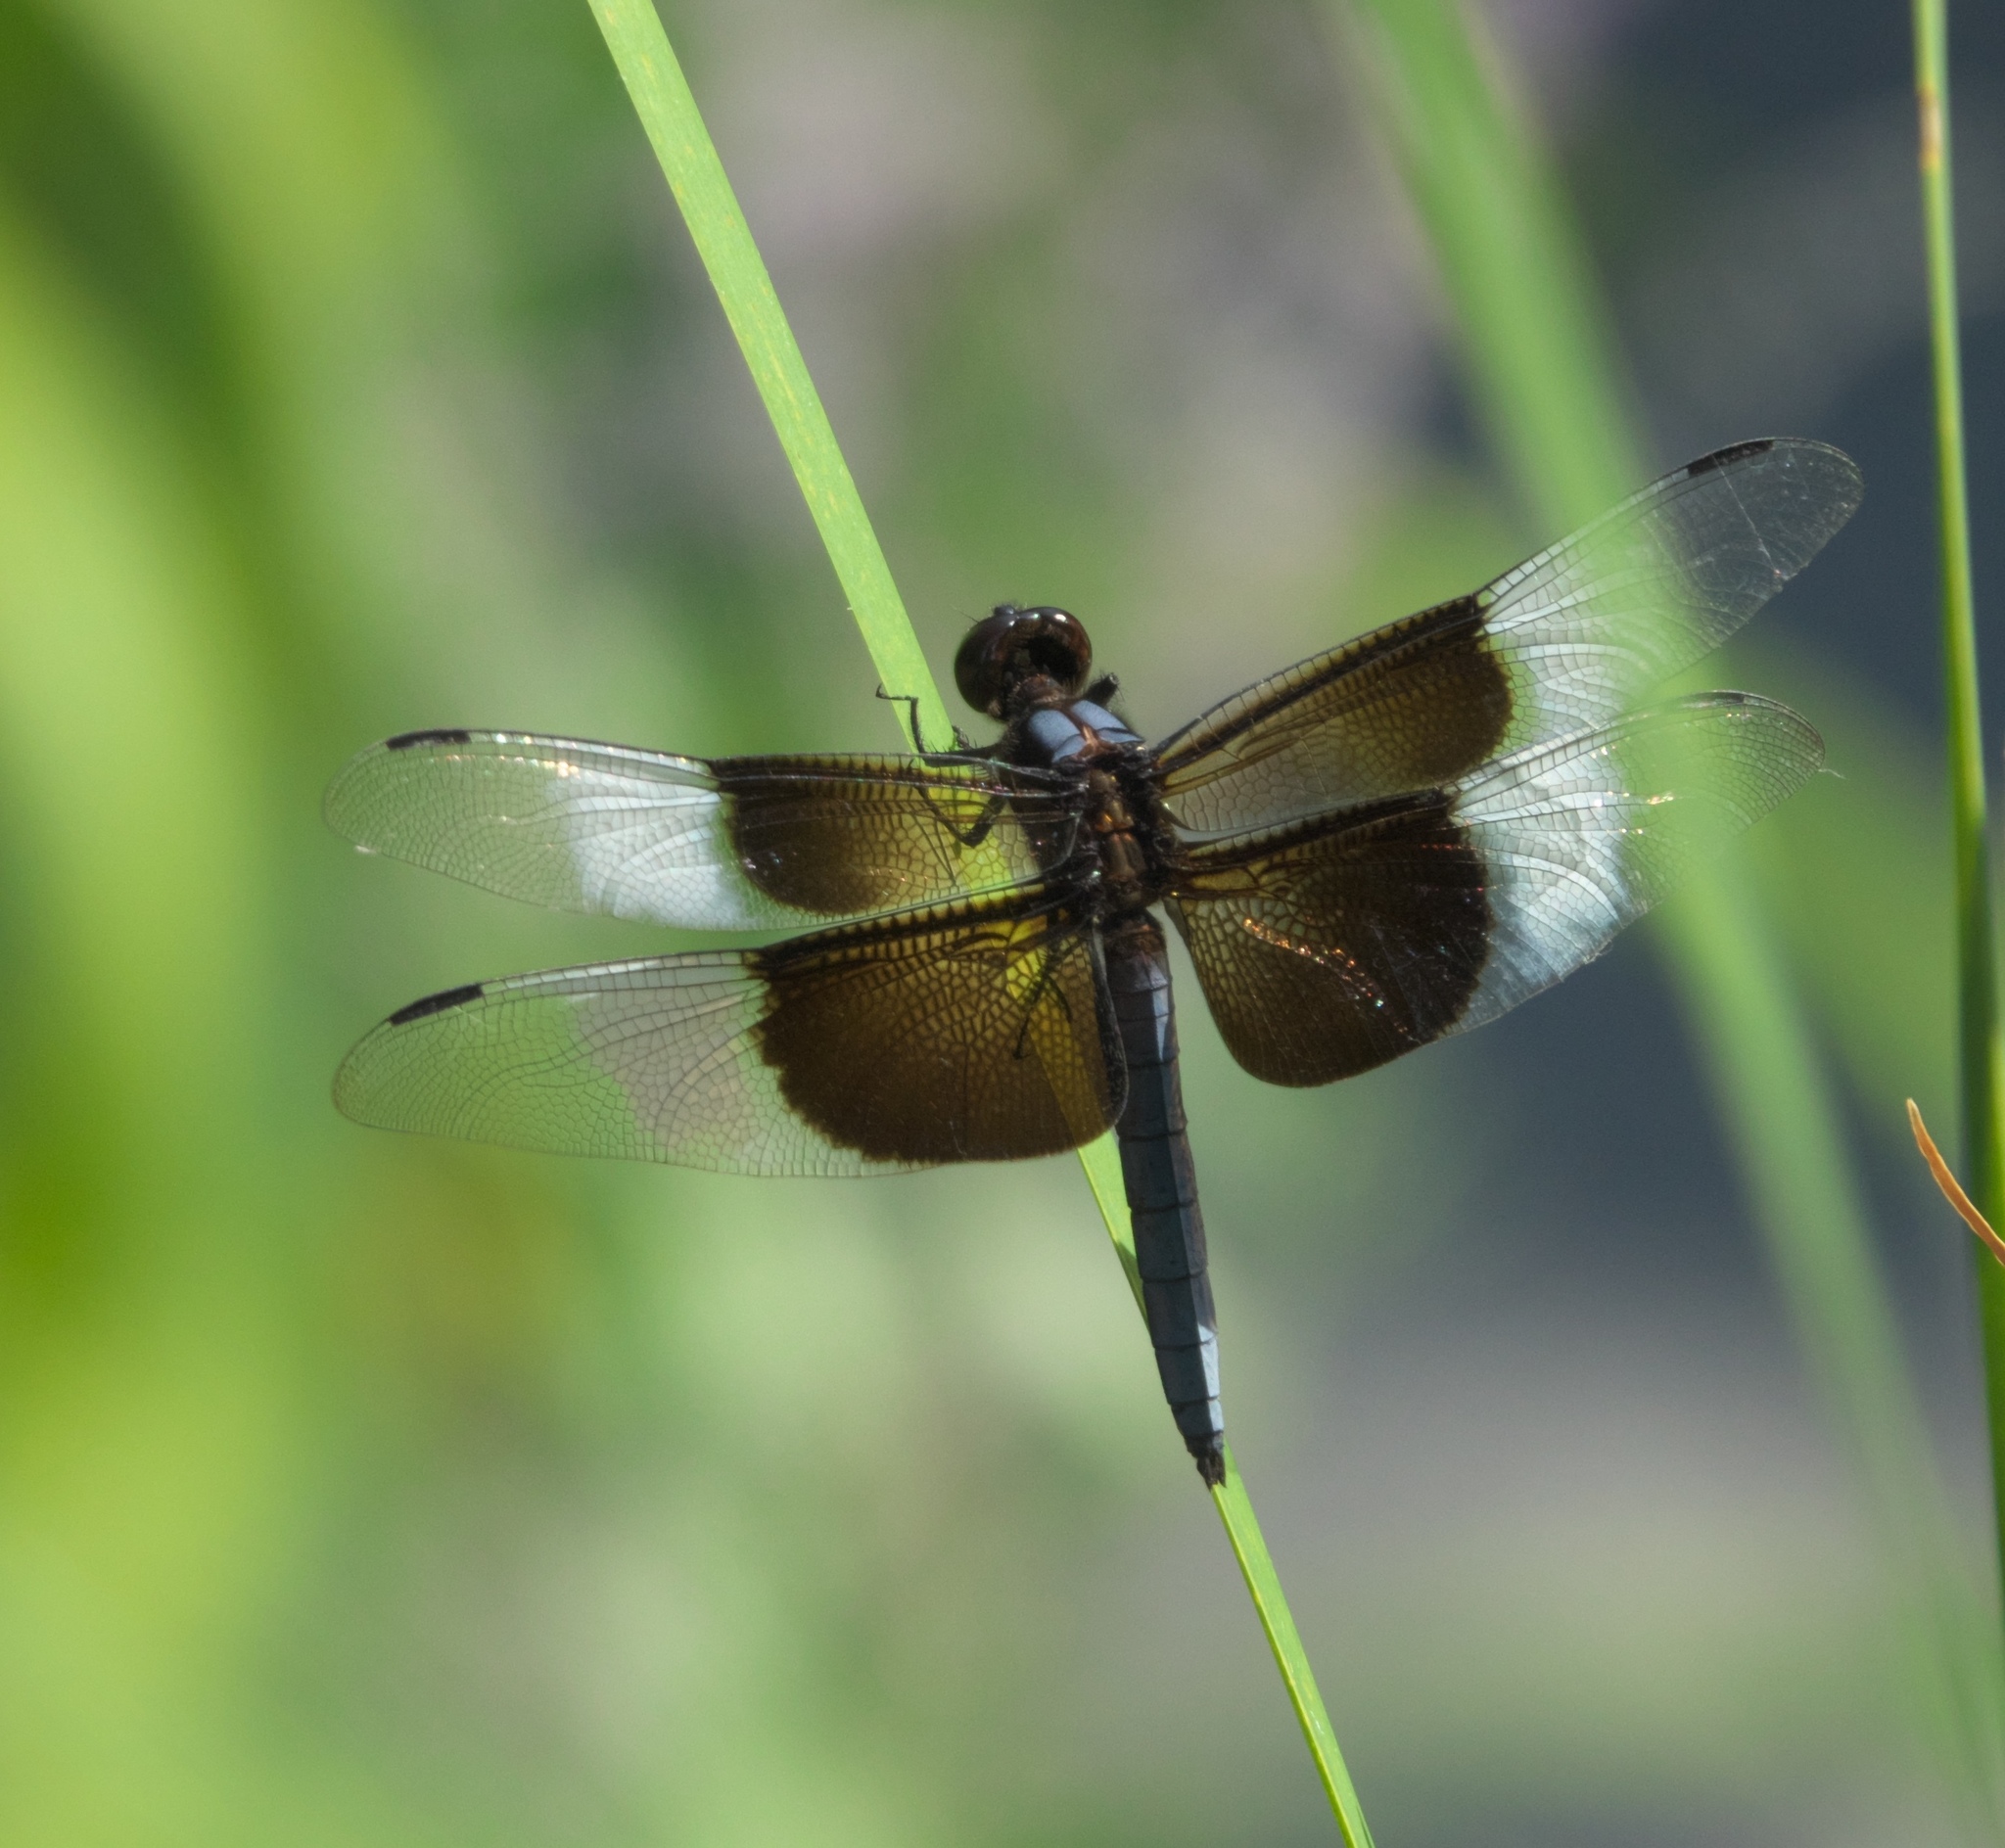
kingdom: Animalia
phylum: Arthropoda
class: Insecta
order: Odonata
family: Libellulidae
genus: Libellula
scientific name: Libellula luctuosa
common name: Widow skimmer
